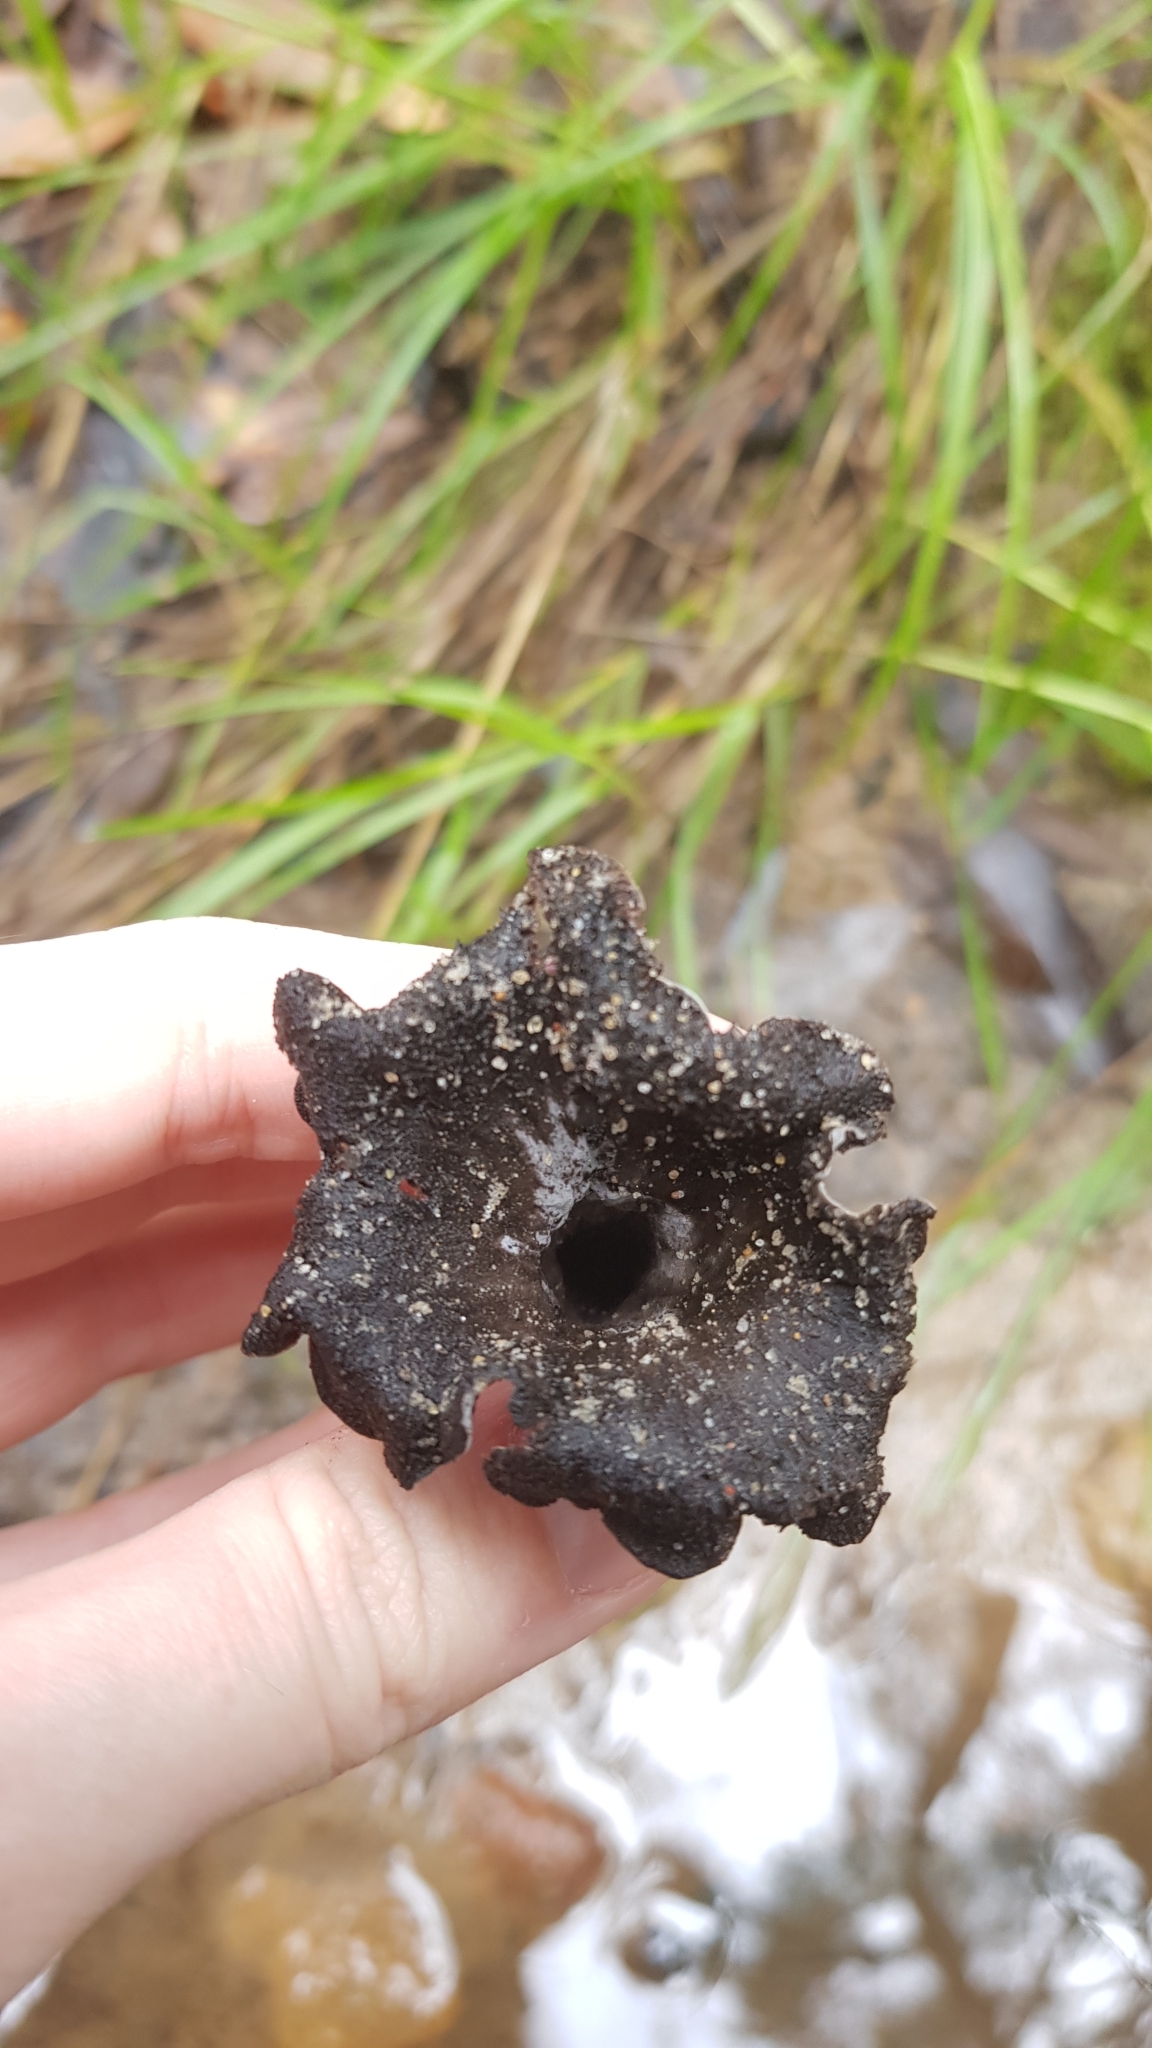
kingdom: Fungi
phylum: Basidiomycota
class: Agaricomycetes
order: Cantharellales
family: Hydnaceae
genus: Craterellus
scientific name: Craterellus cornucopioides
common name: Horn of plenty
